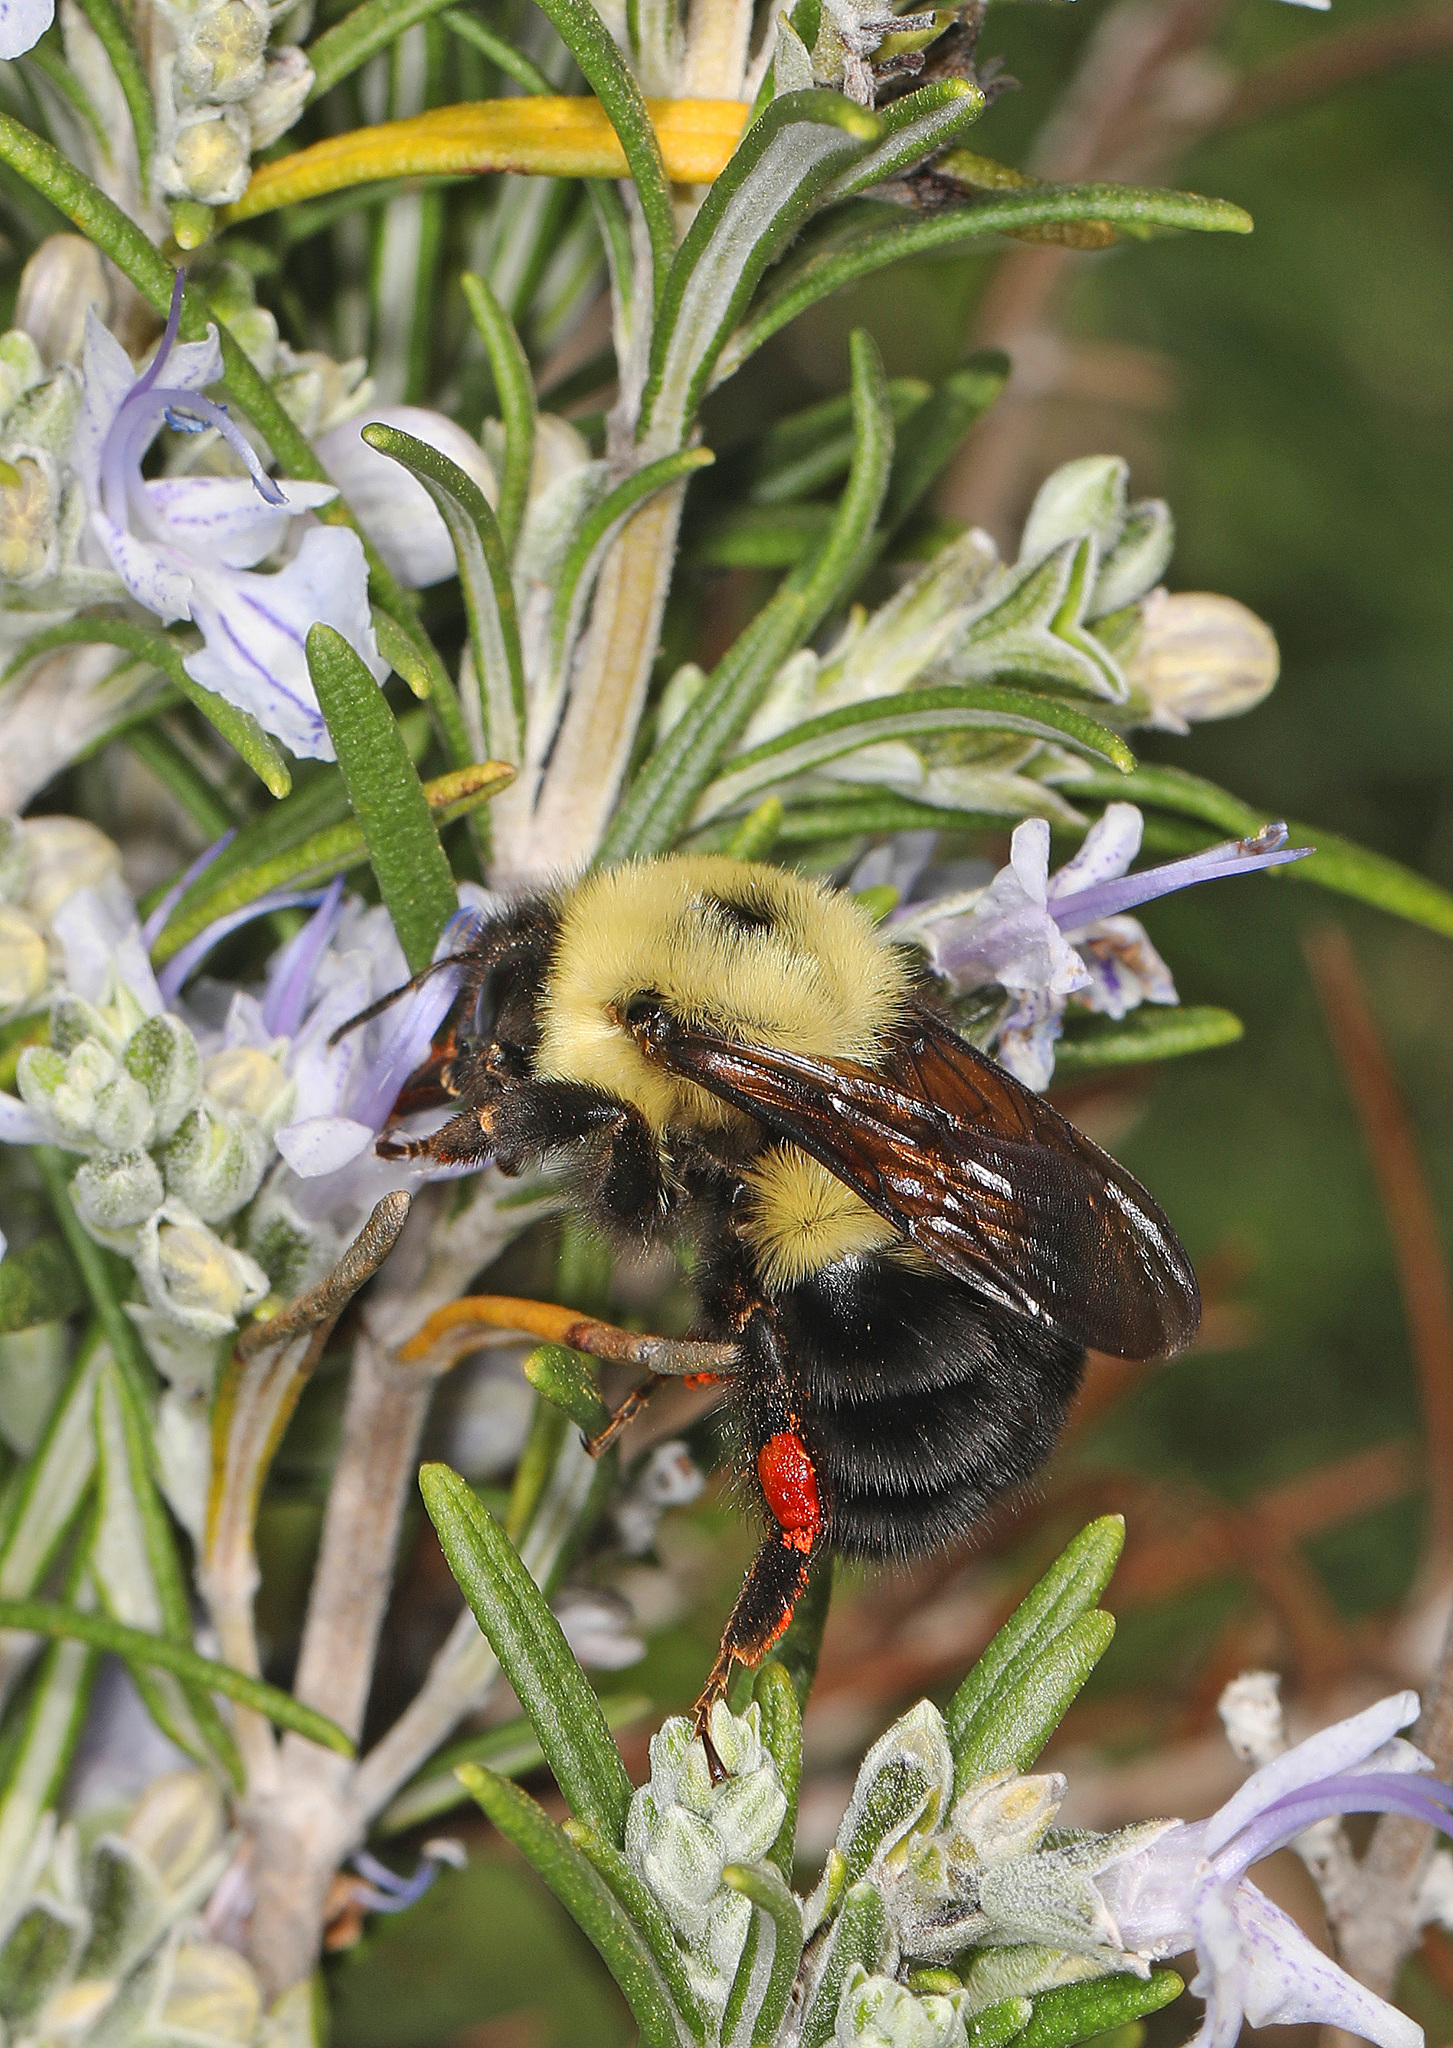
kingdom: Animalia
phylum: Arthropoda
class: Insecta
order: Hymenoptera
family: Apidae
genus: Bombus
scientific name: Bombus bimaculatus
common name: Two-spotted bumble bee
